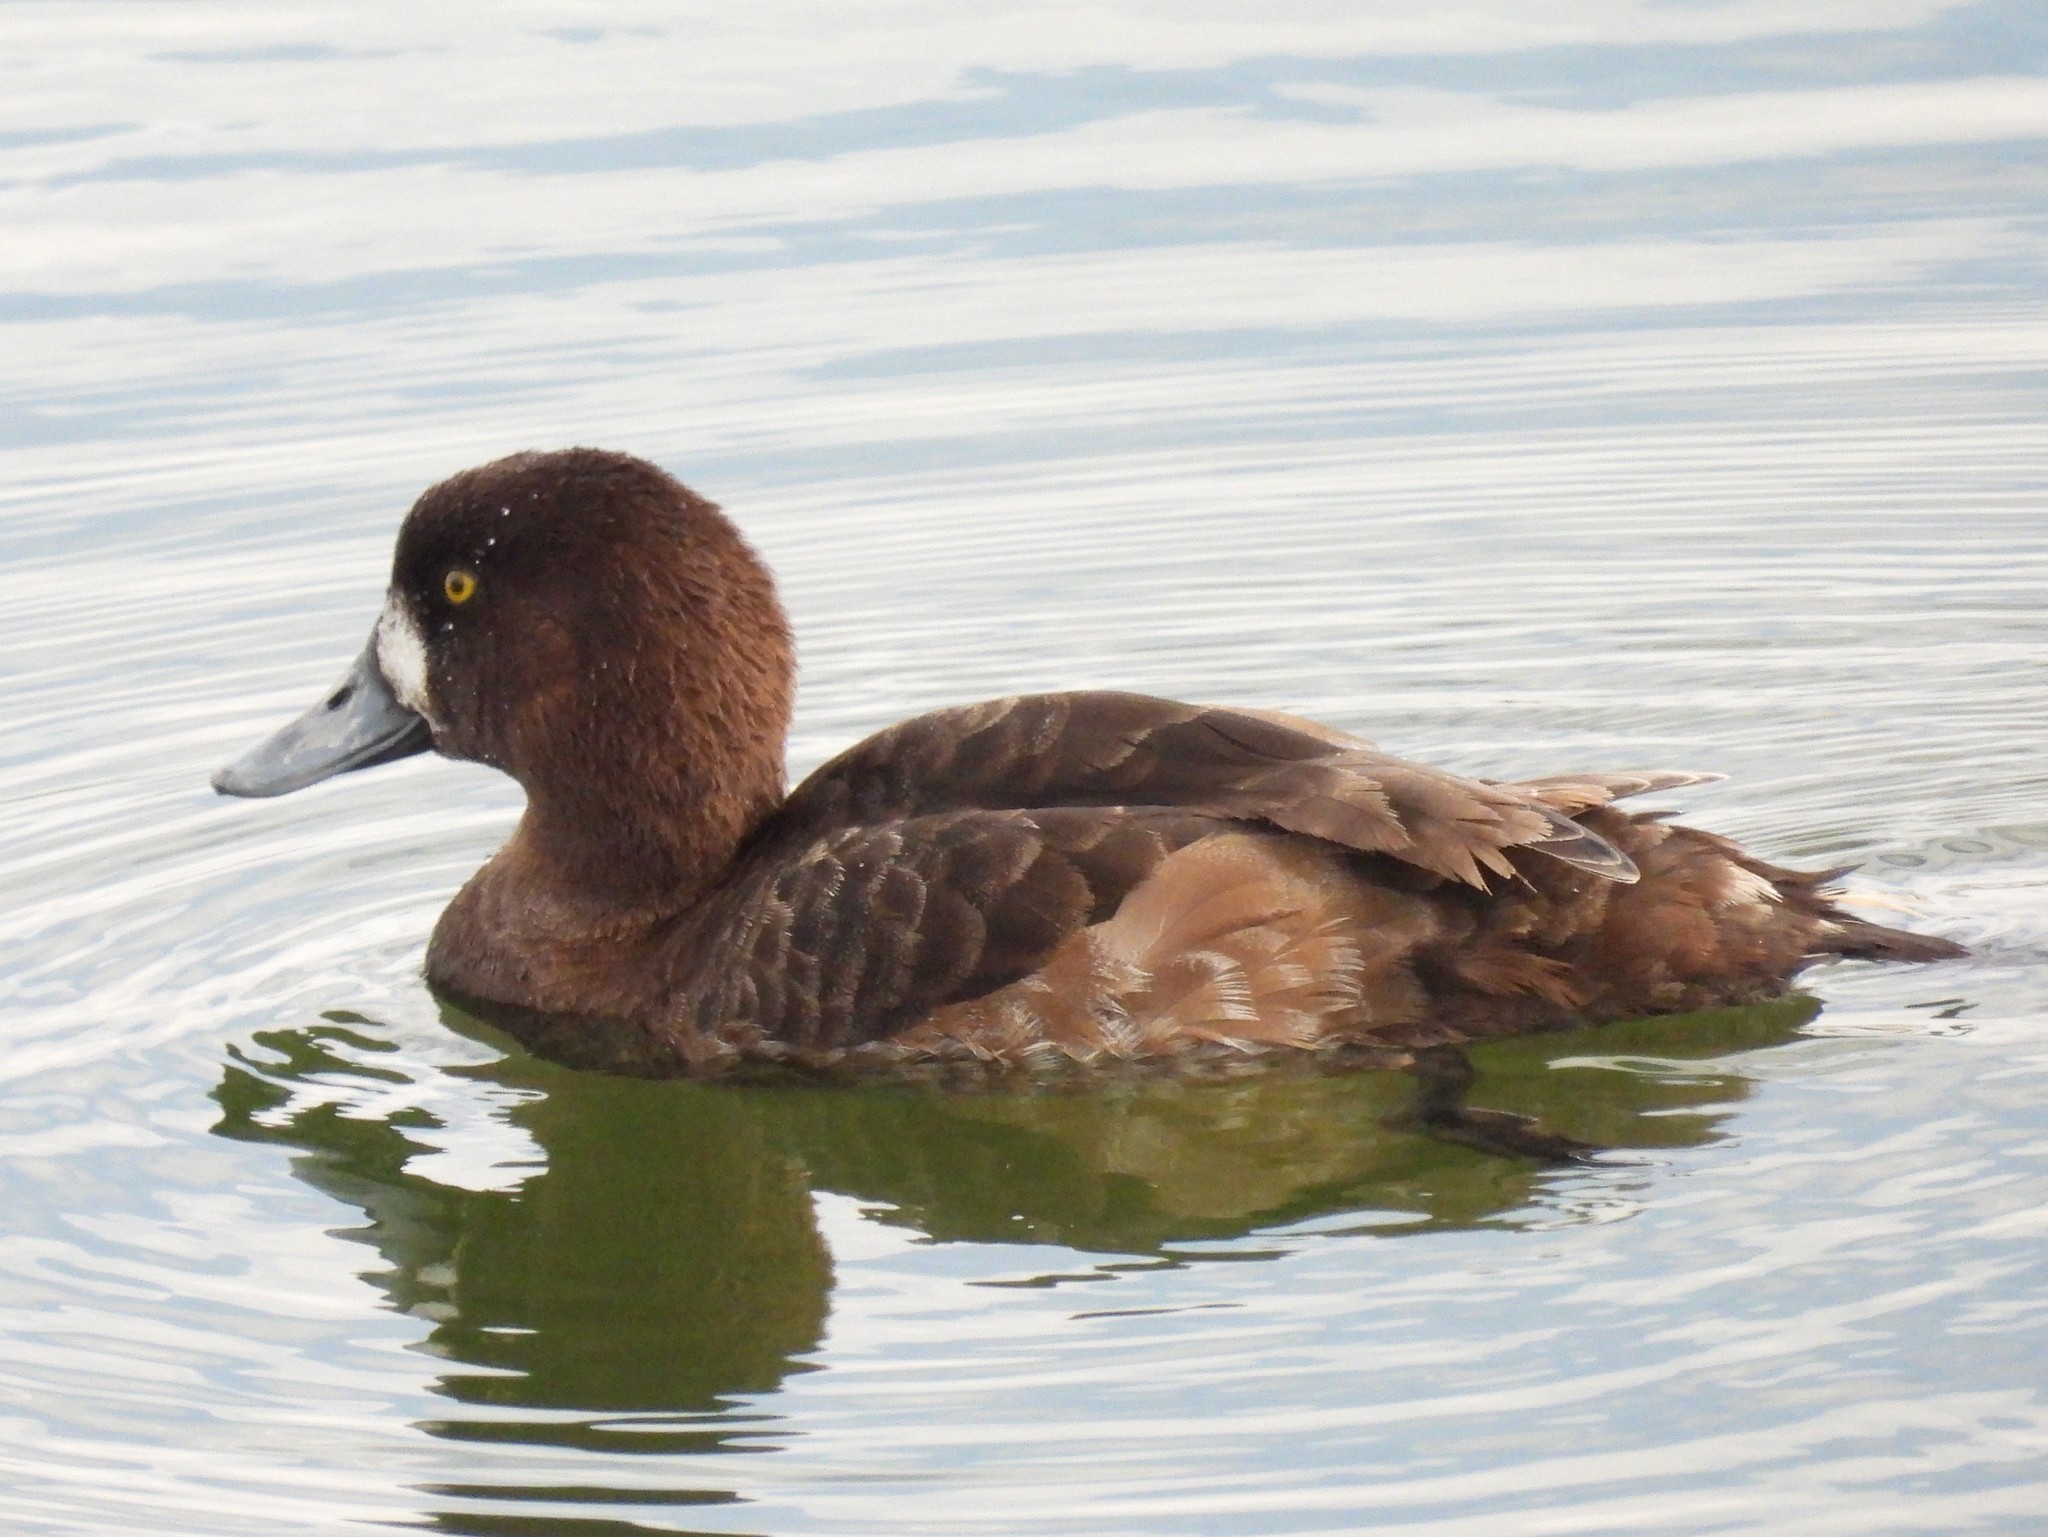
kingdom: Animalia
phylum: Chordata
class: Aves
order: Anseriformes
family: Anatidae
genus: Aythya
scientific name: Aythya marila
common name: Greater scaup
